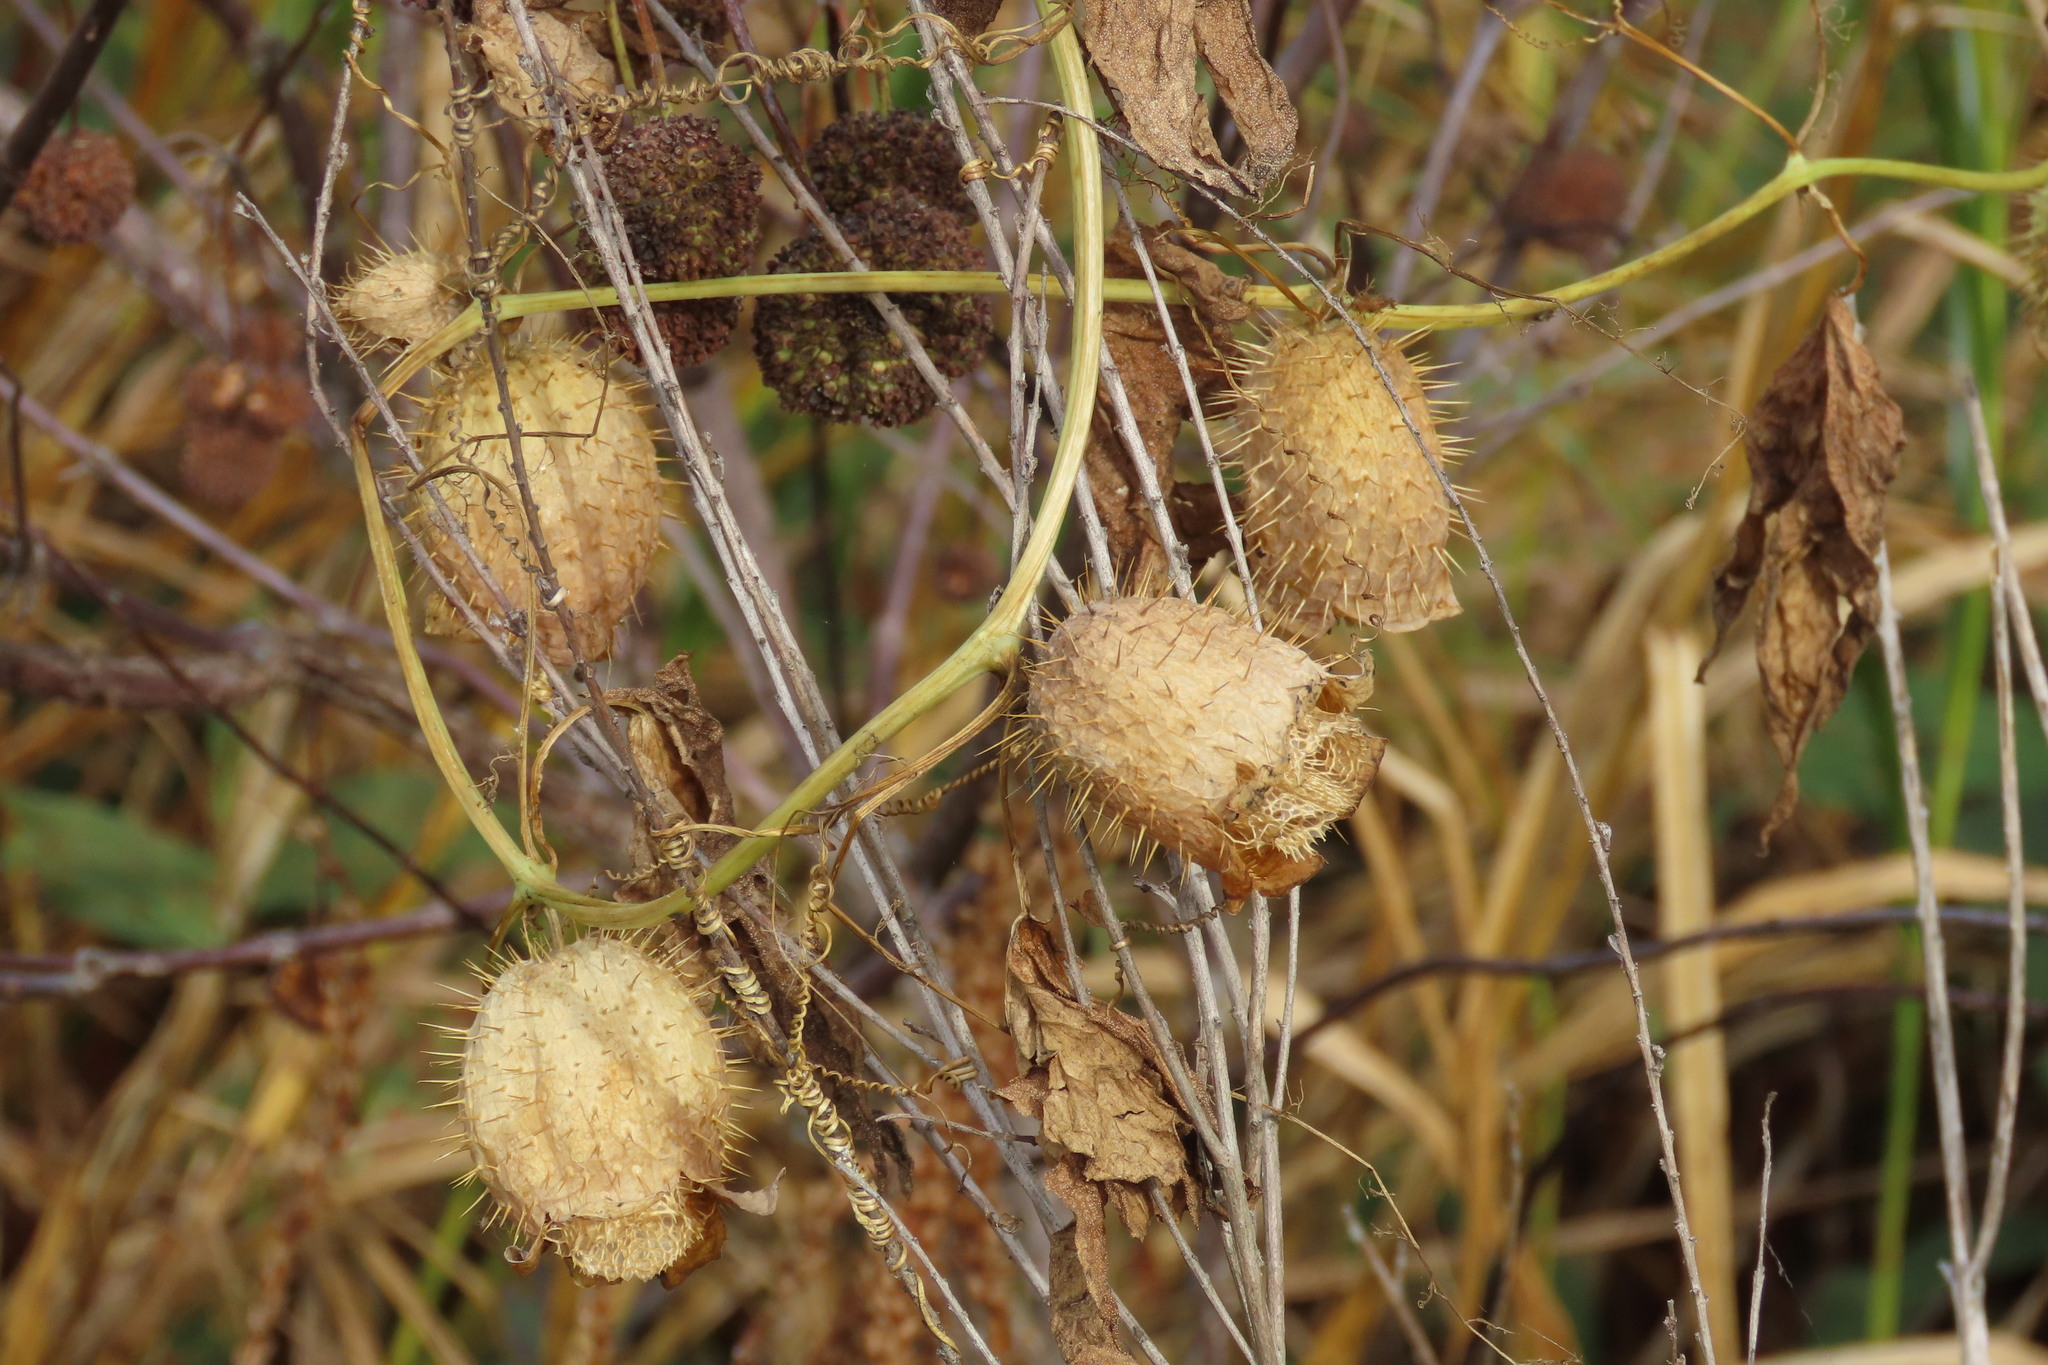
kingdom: Plantae
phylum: Tracheophyta
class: Magnoliopsida
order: Cucurbitales
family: Cucurbitaceae
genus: Echinocystis
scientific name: Echinocystis lobata
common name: Wild cucumber
